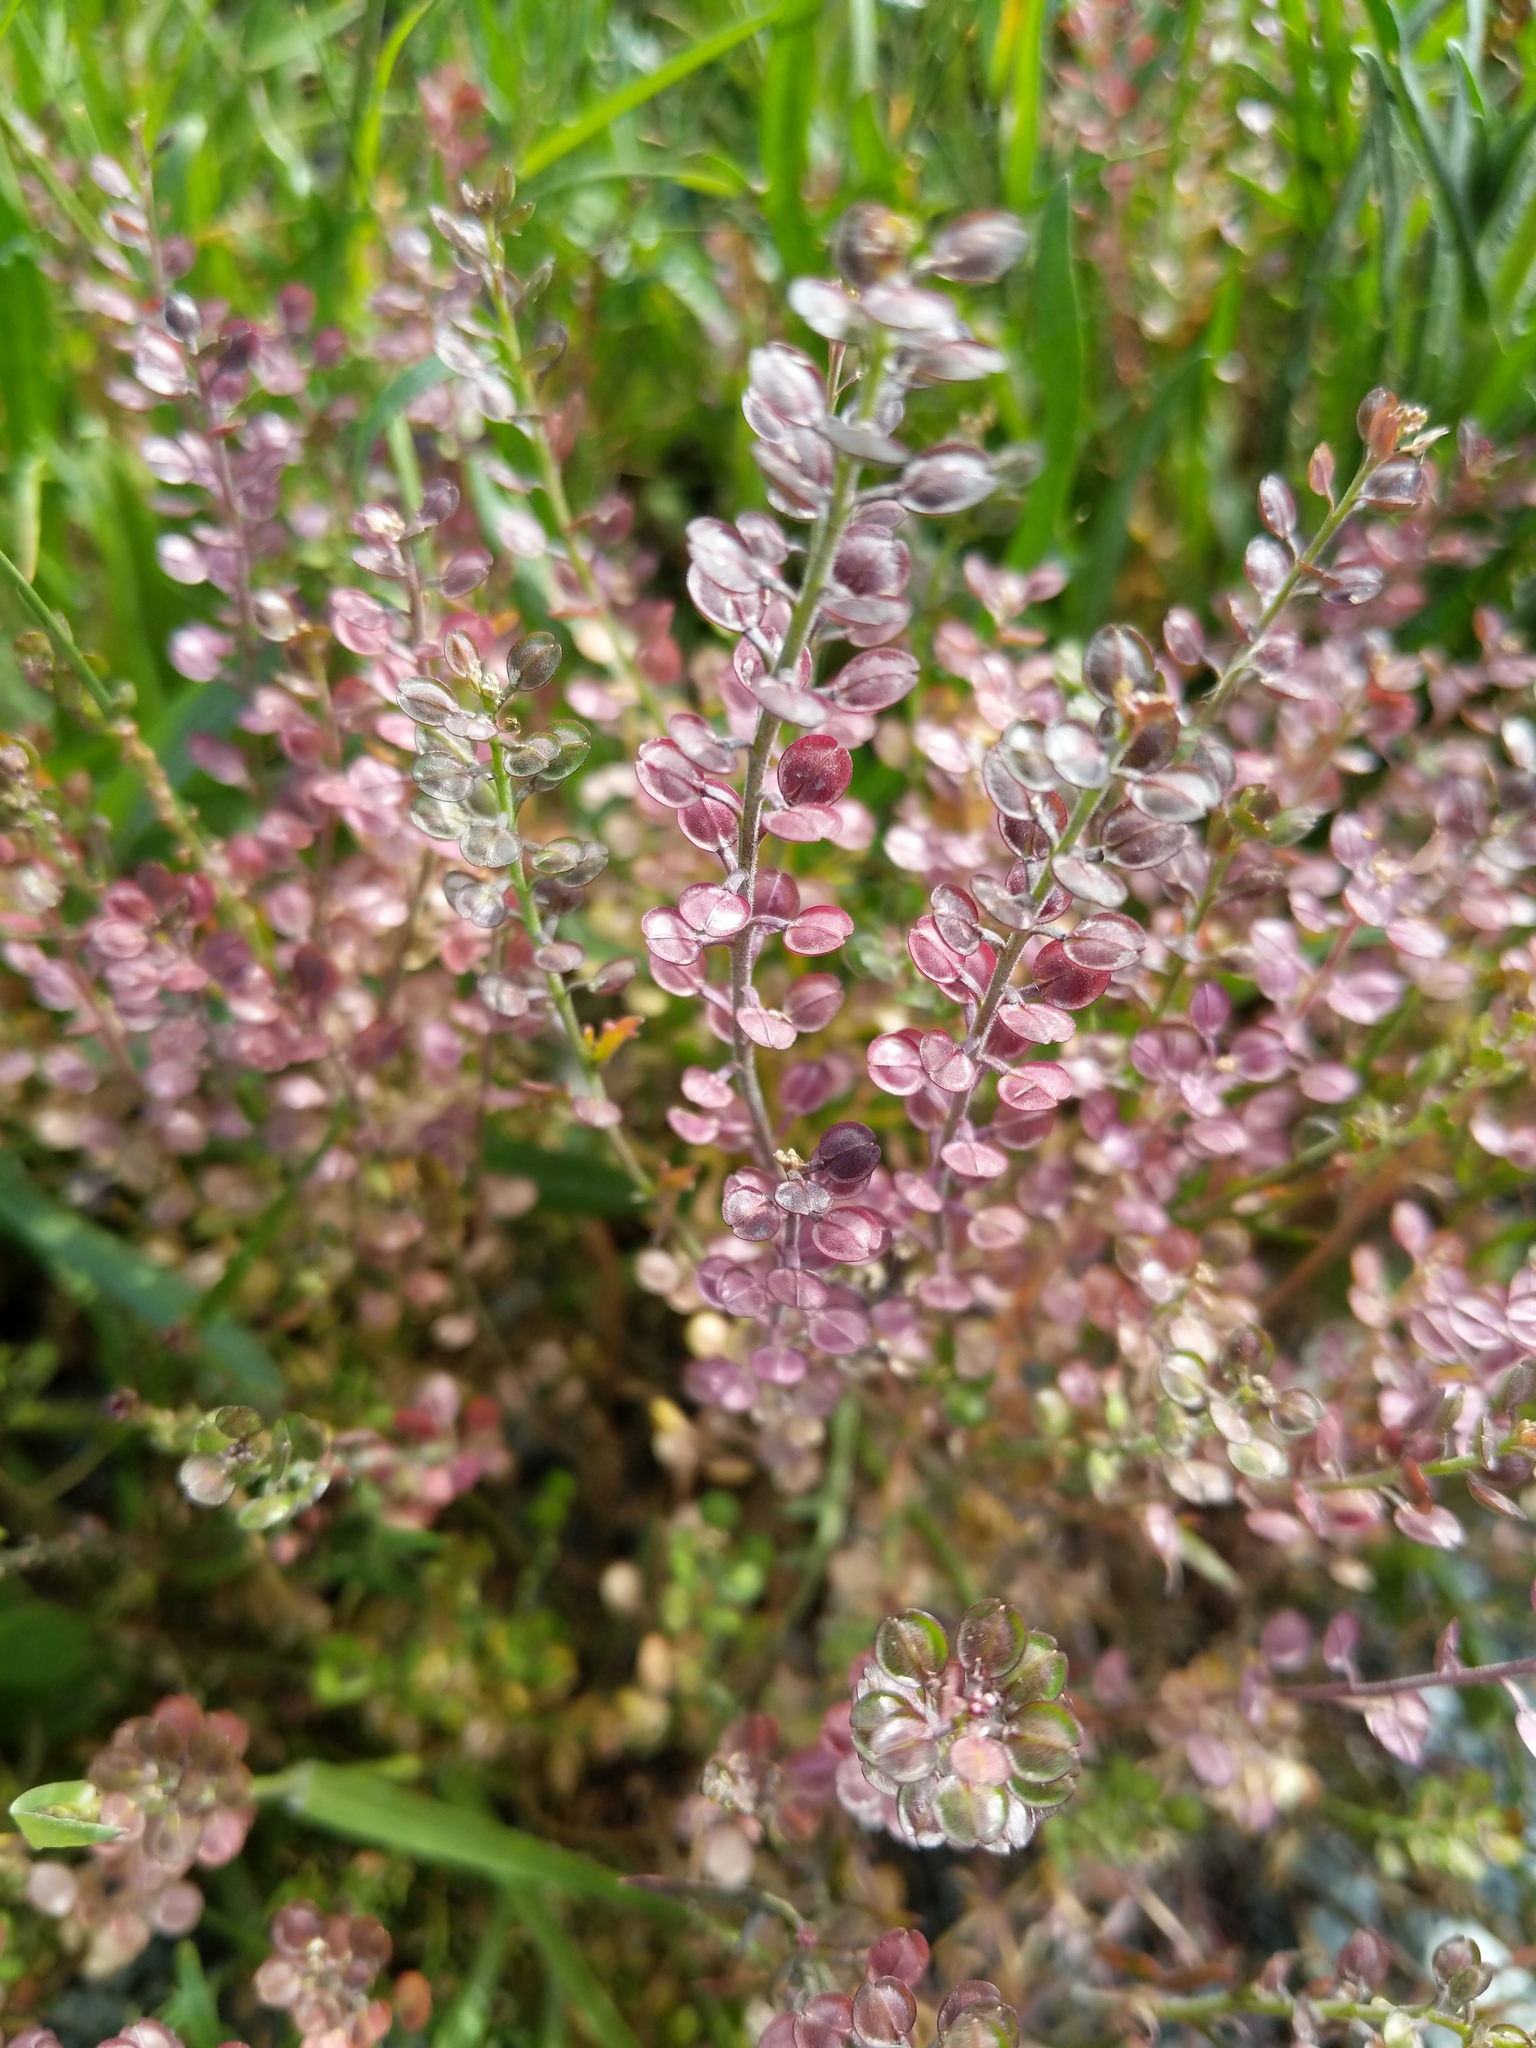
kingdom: Plantae
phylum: Tracheophyta
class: Magnoliopsida
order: Brassicales
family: Brassicaceae
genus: Lepidium
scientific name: Lepidium nitidum
